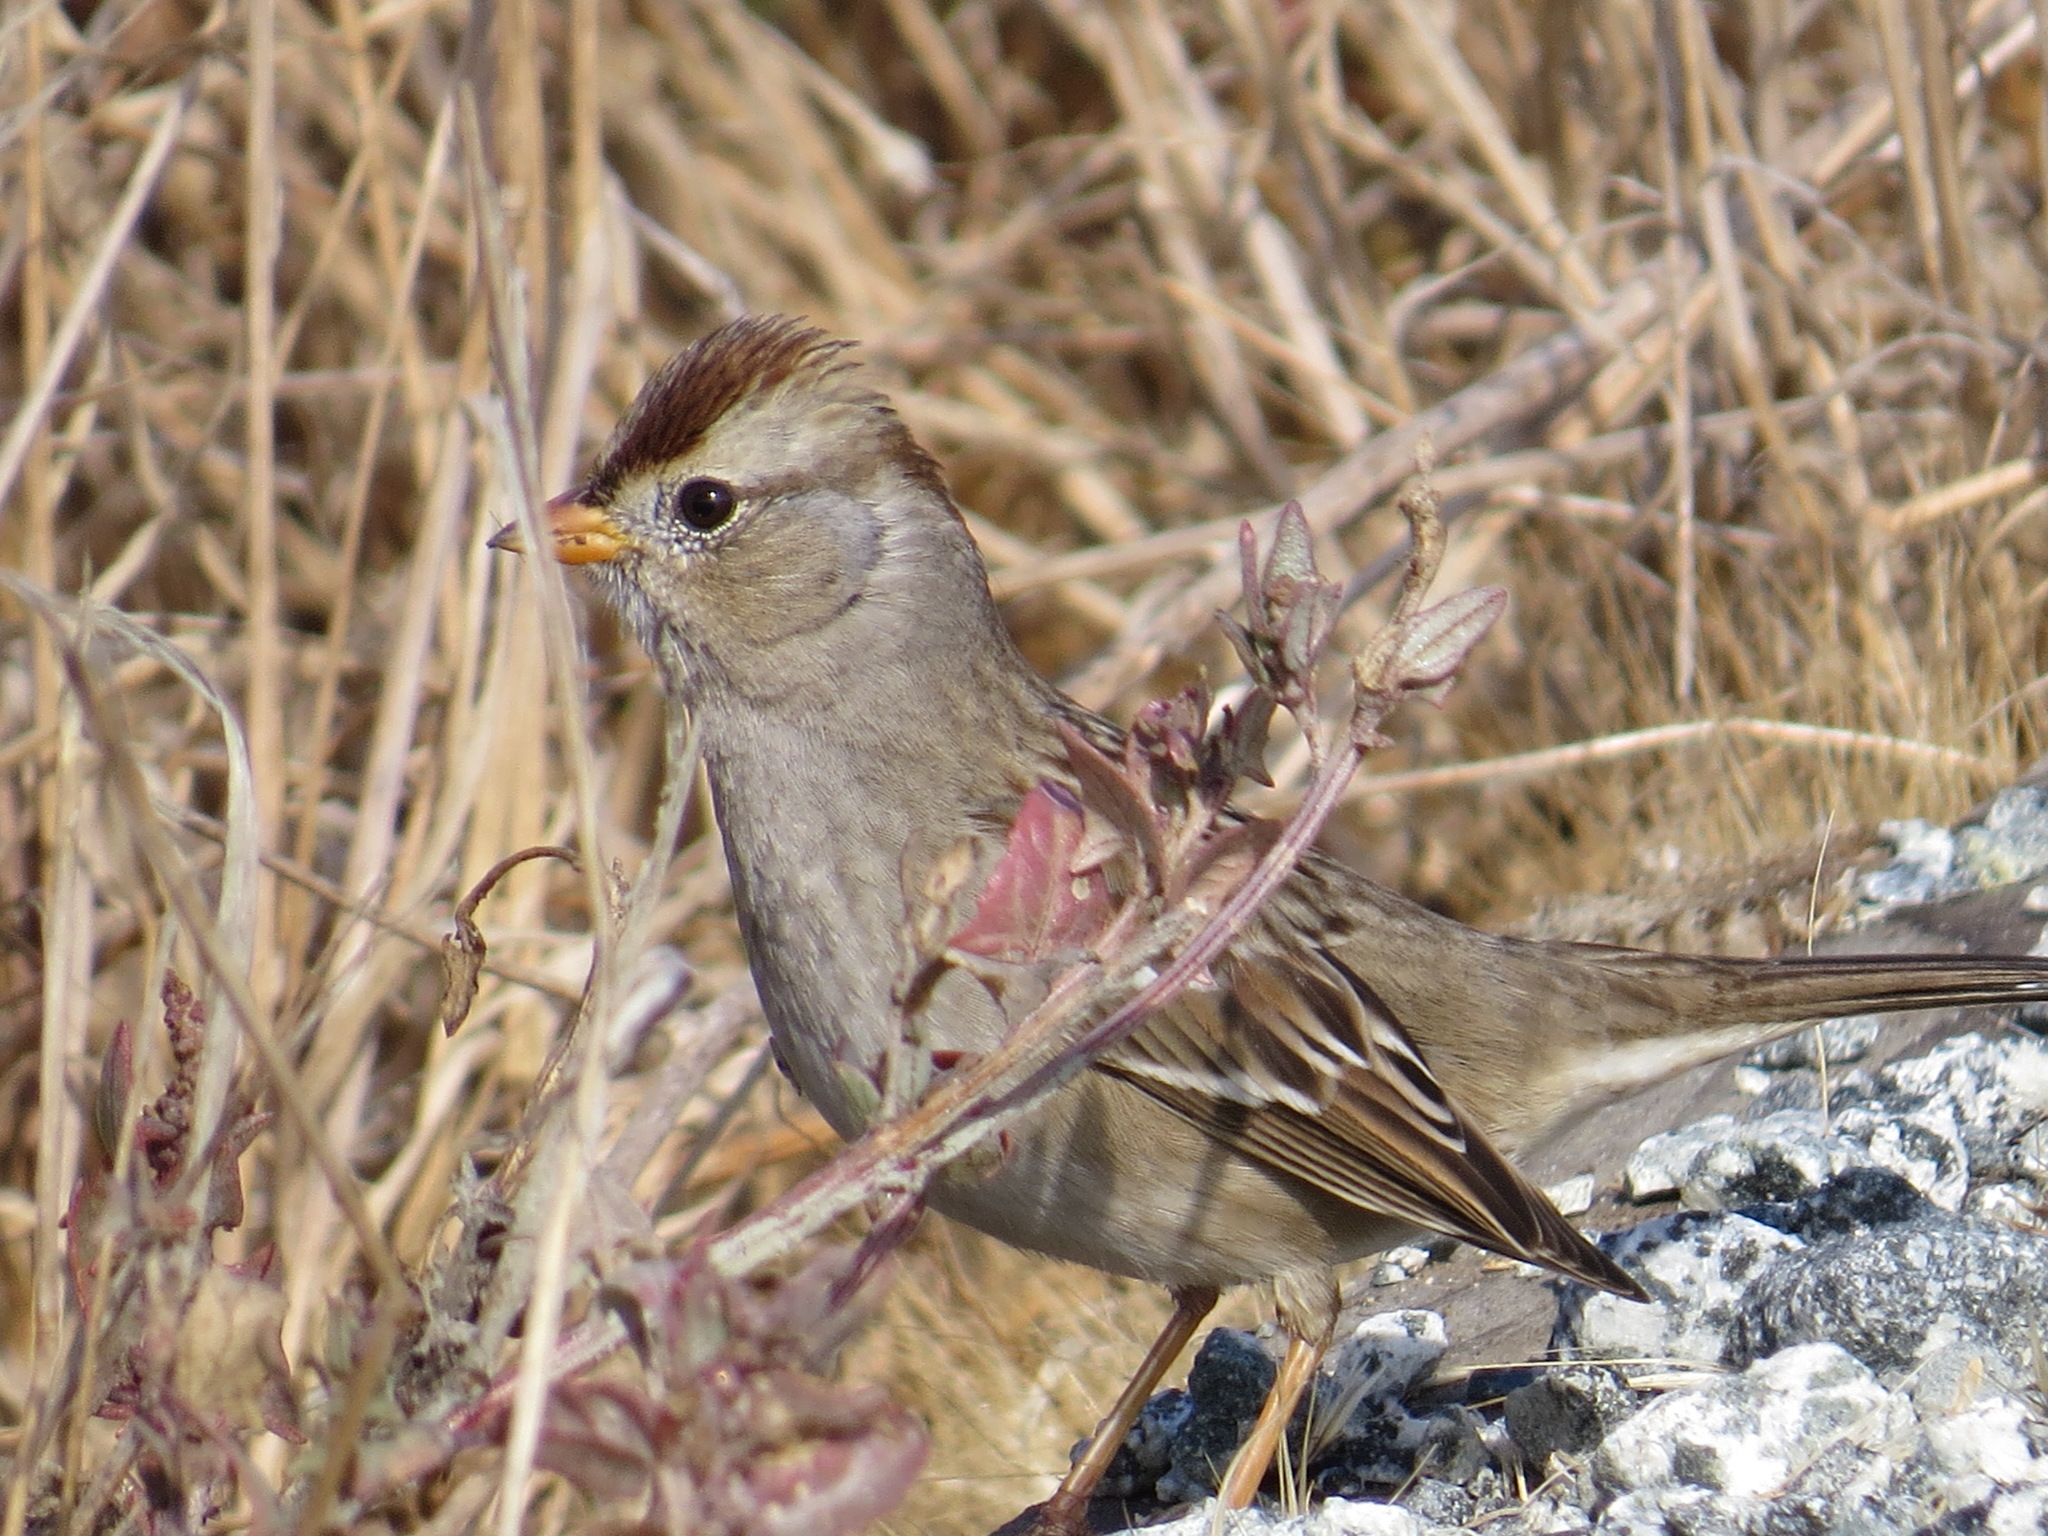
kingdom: Animalia
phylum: Chordata
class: Aves
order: Passeriformes
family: Passerellidae
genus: Zonotrichia
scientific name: Zonotrichia leucophrys
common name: White-crowned sparrow
